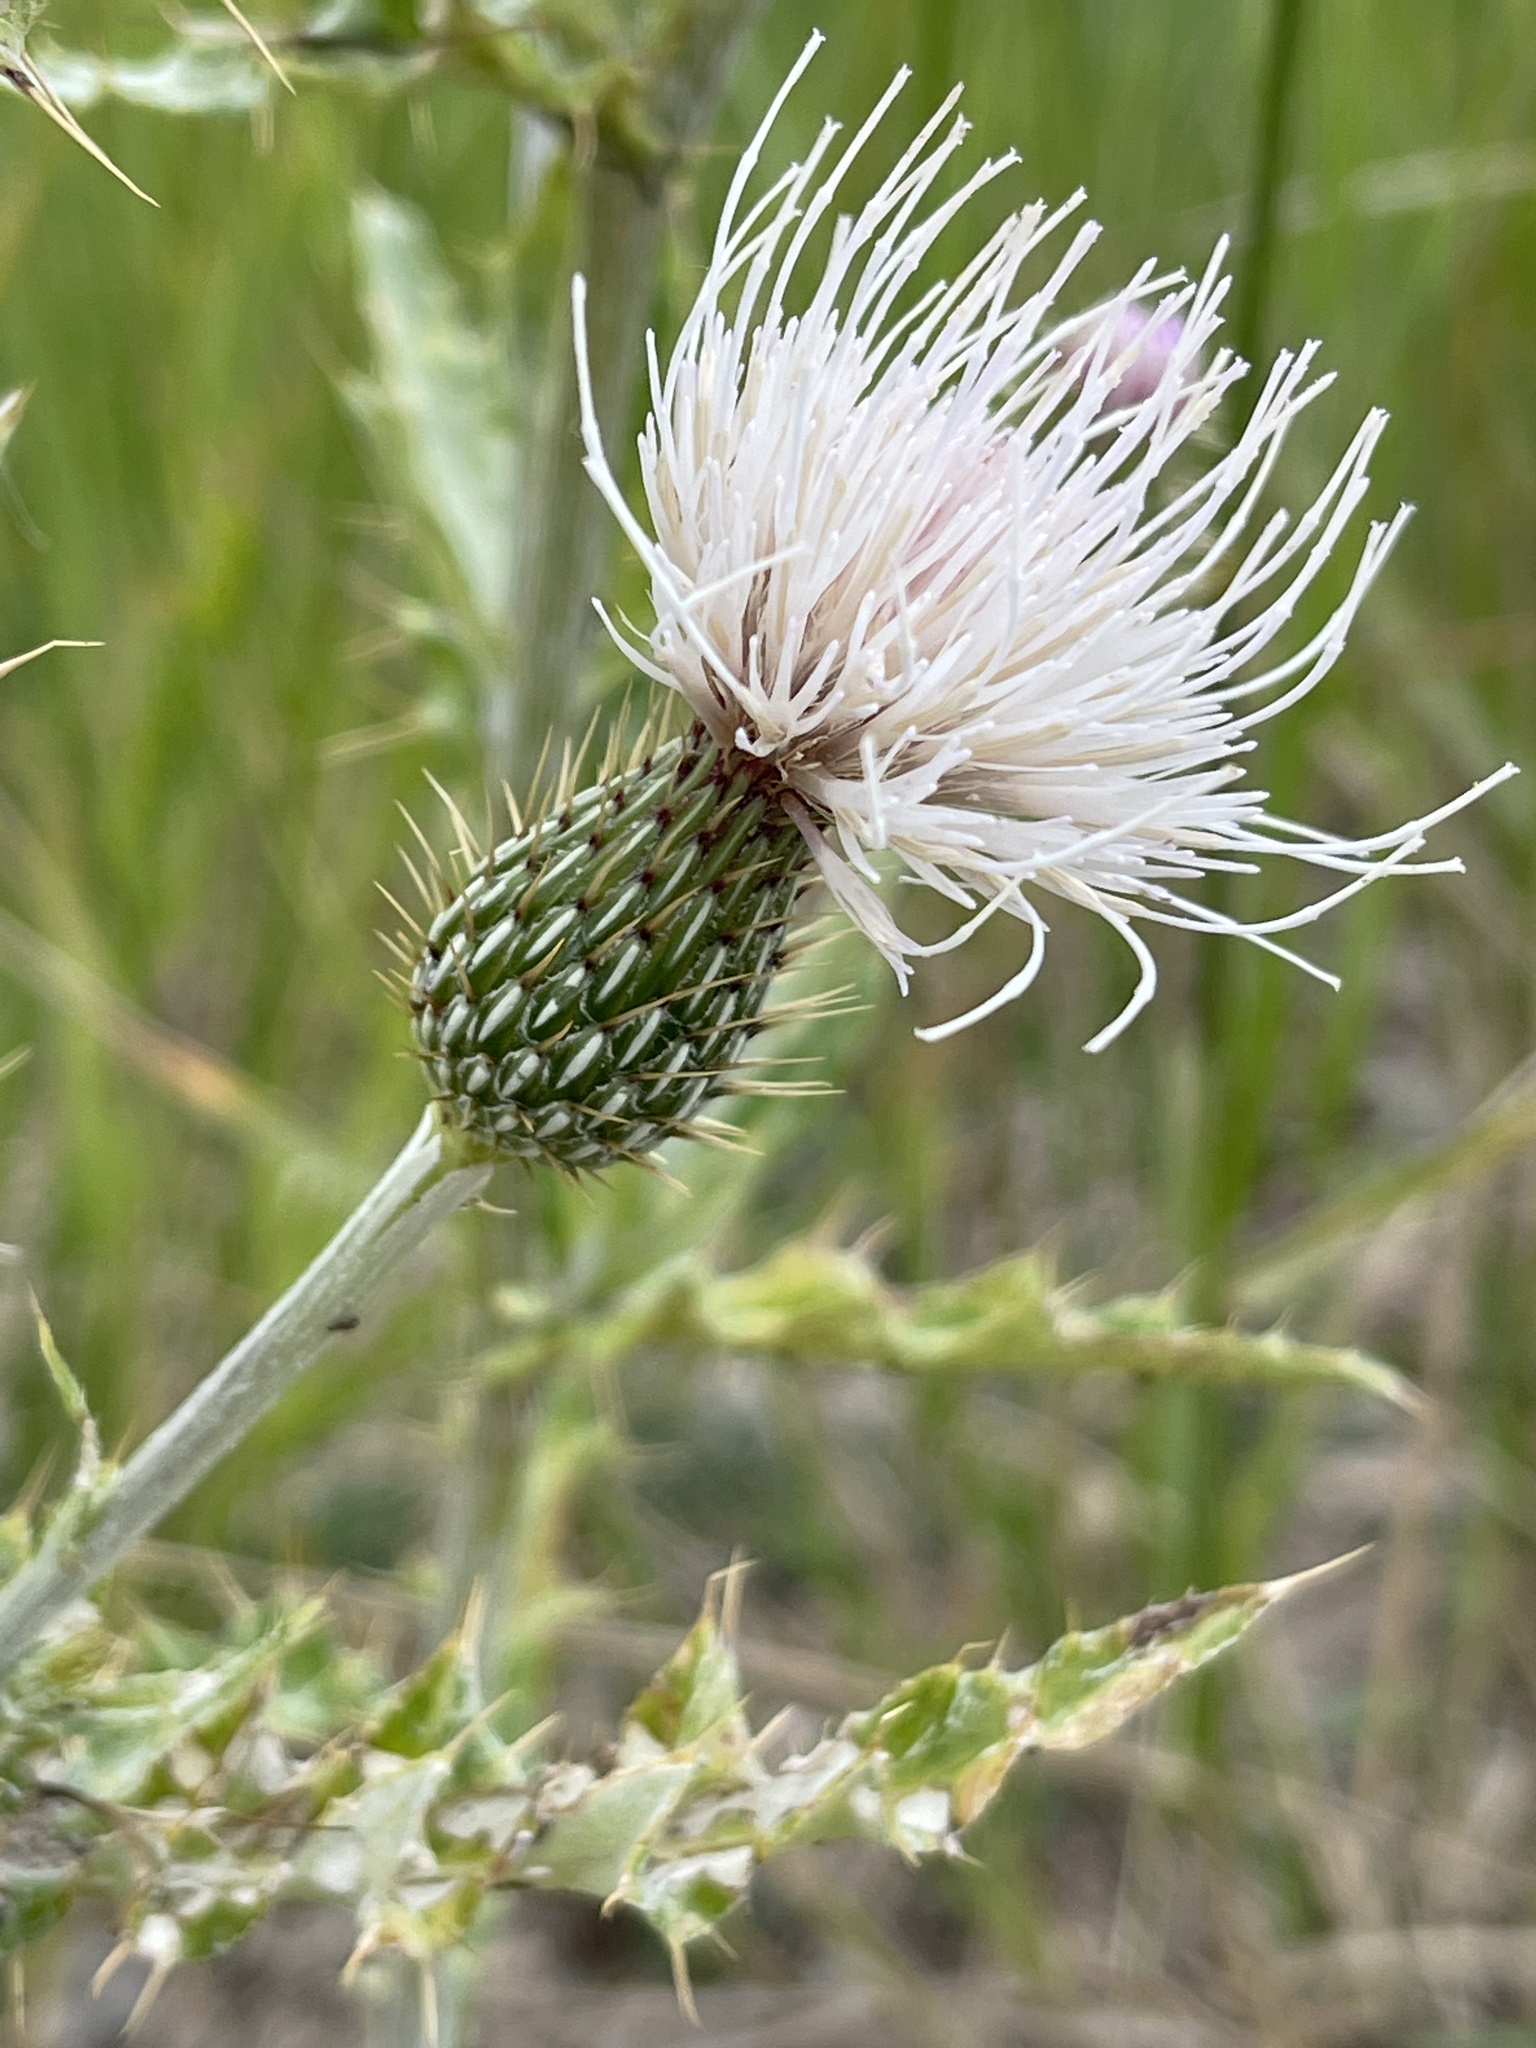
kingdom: Plantae
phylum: Tracheophyta
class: Magnoliopsida
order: Asterales
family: Asteraceae
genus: Cirsium
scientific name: Cirsium tracyi
